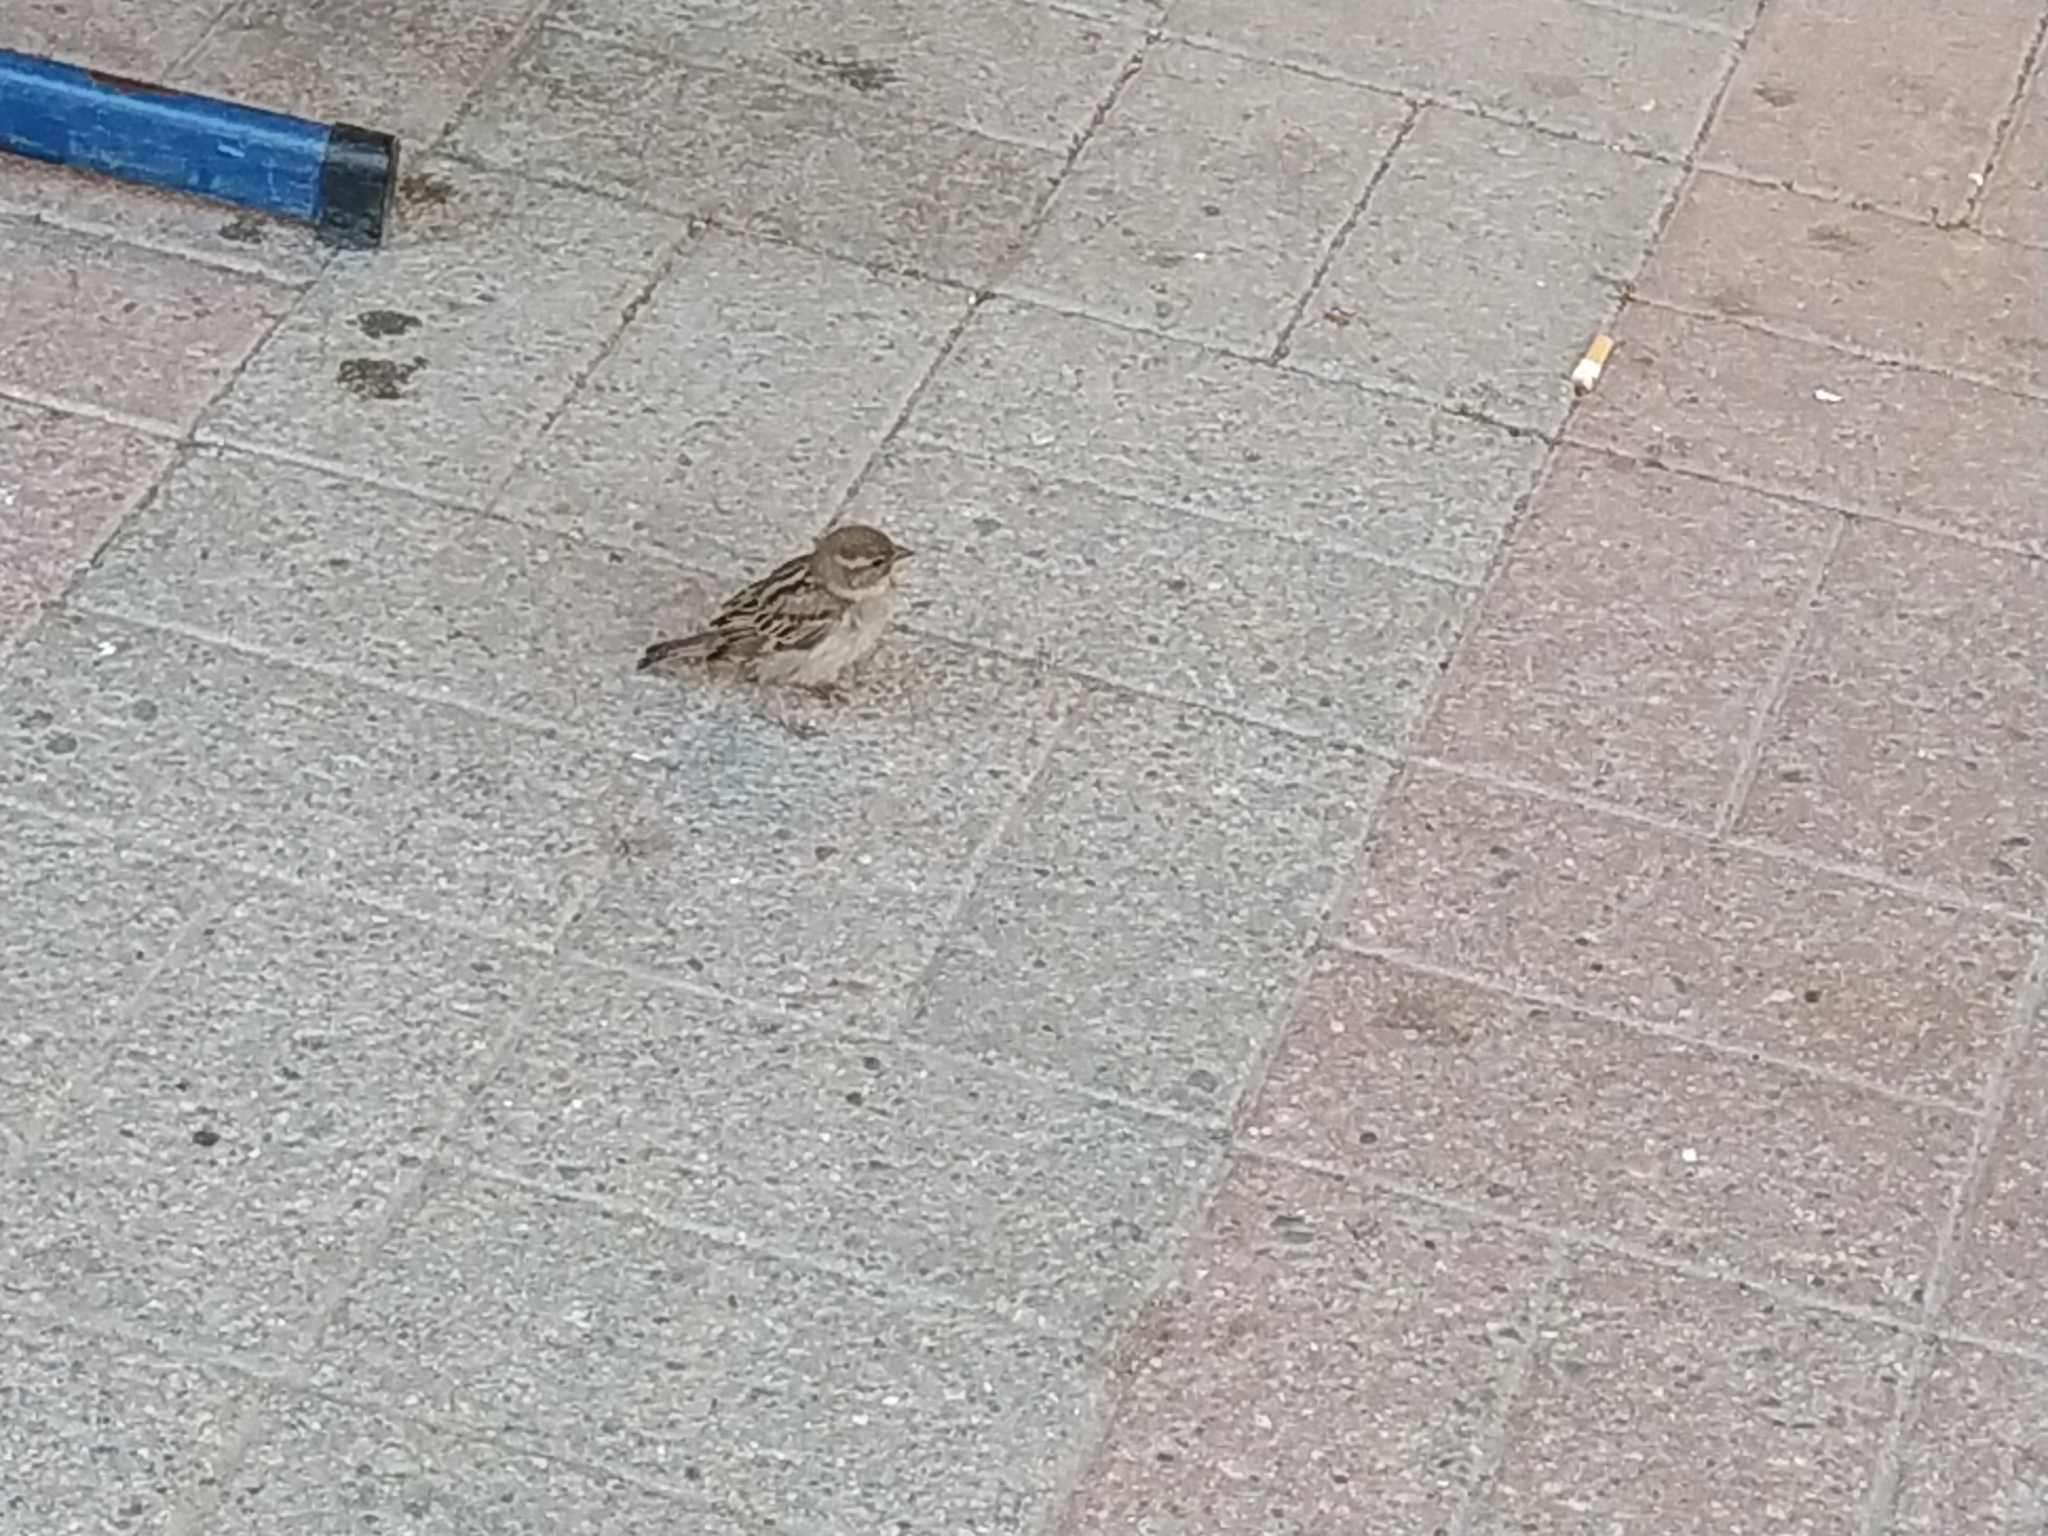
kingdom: Animalia
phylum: Chordata
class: Aves
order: Passeriformes
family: Passeridae
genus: Passer
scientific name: Passer domesticus
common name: House sparrow
